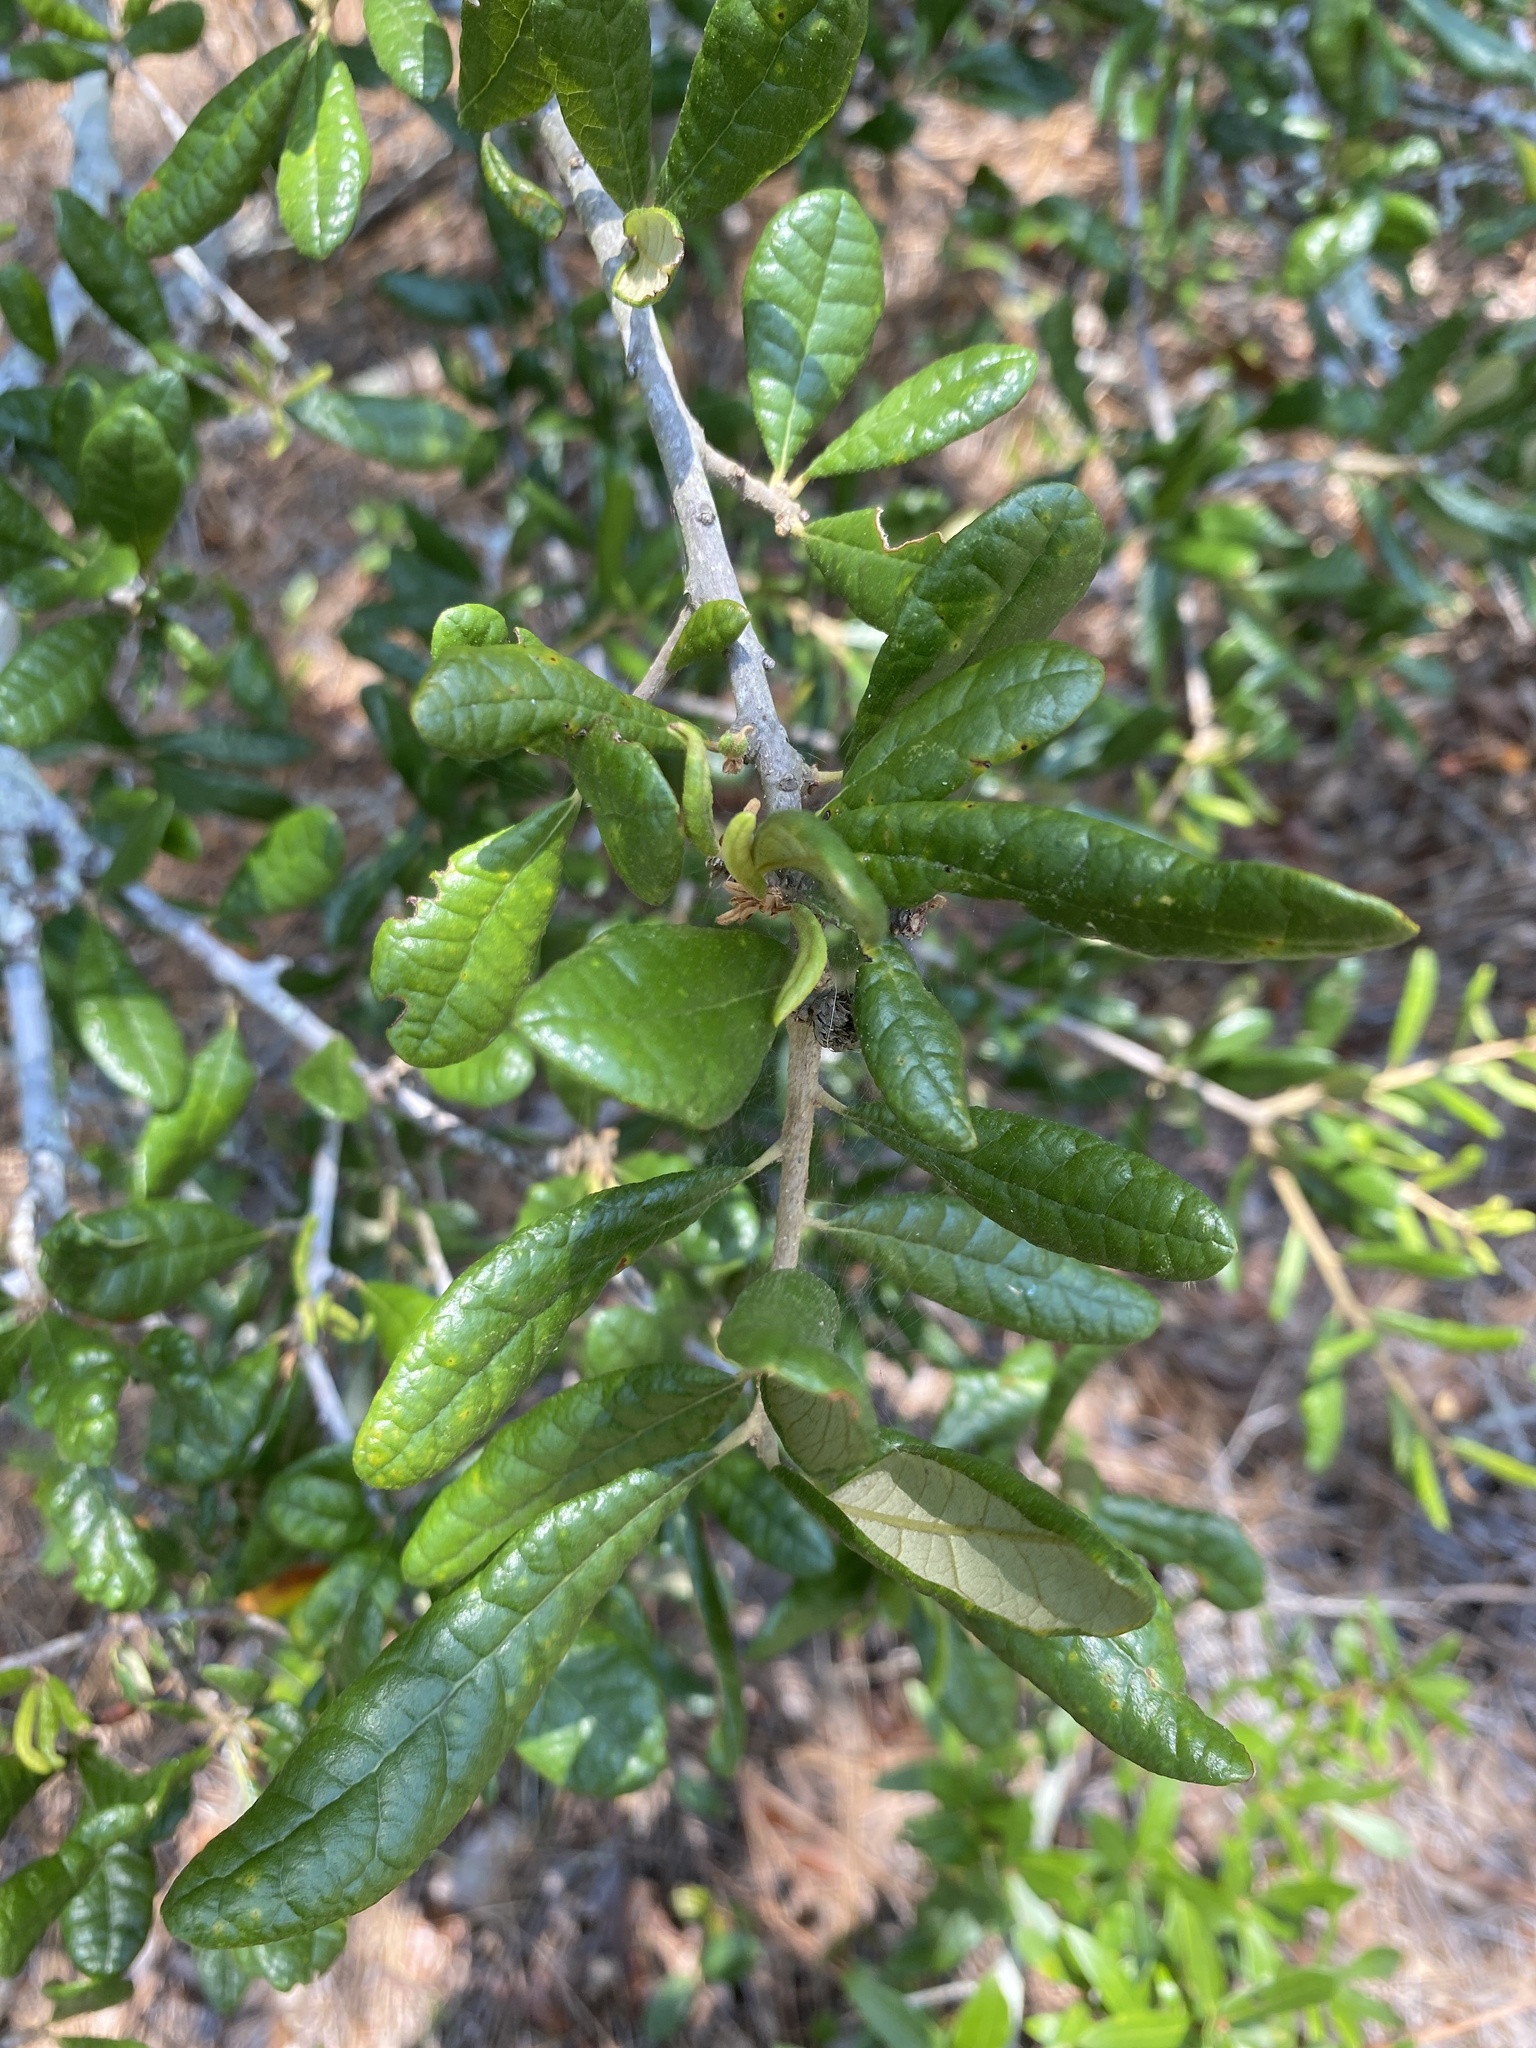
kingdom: Plantae
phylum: Tracheophyta
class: Magnoliopsida
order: Fagales
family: Fagaceae
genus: Quercus
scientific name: Quercus geminata
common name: Sand live oak
